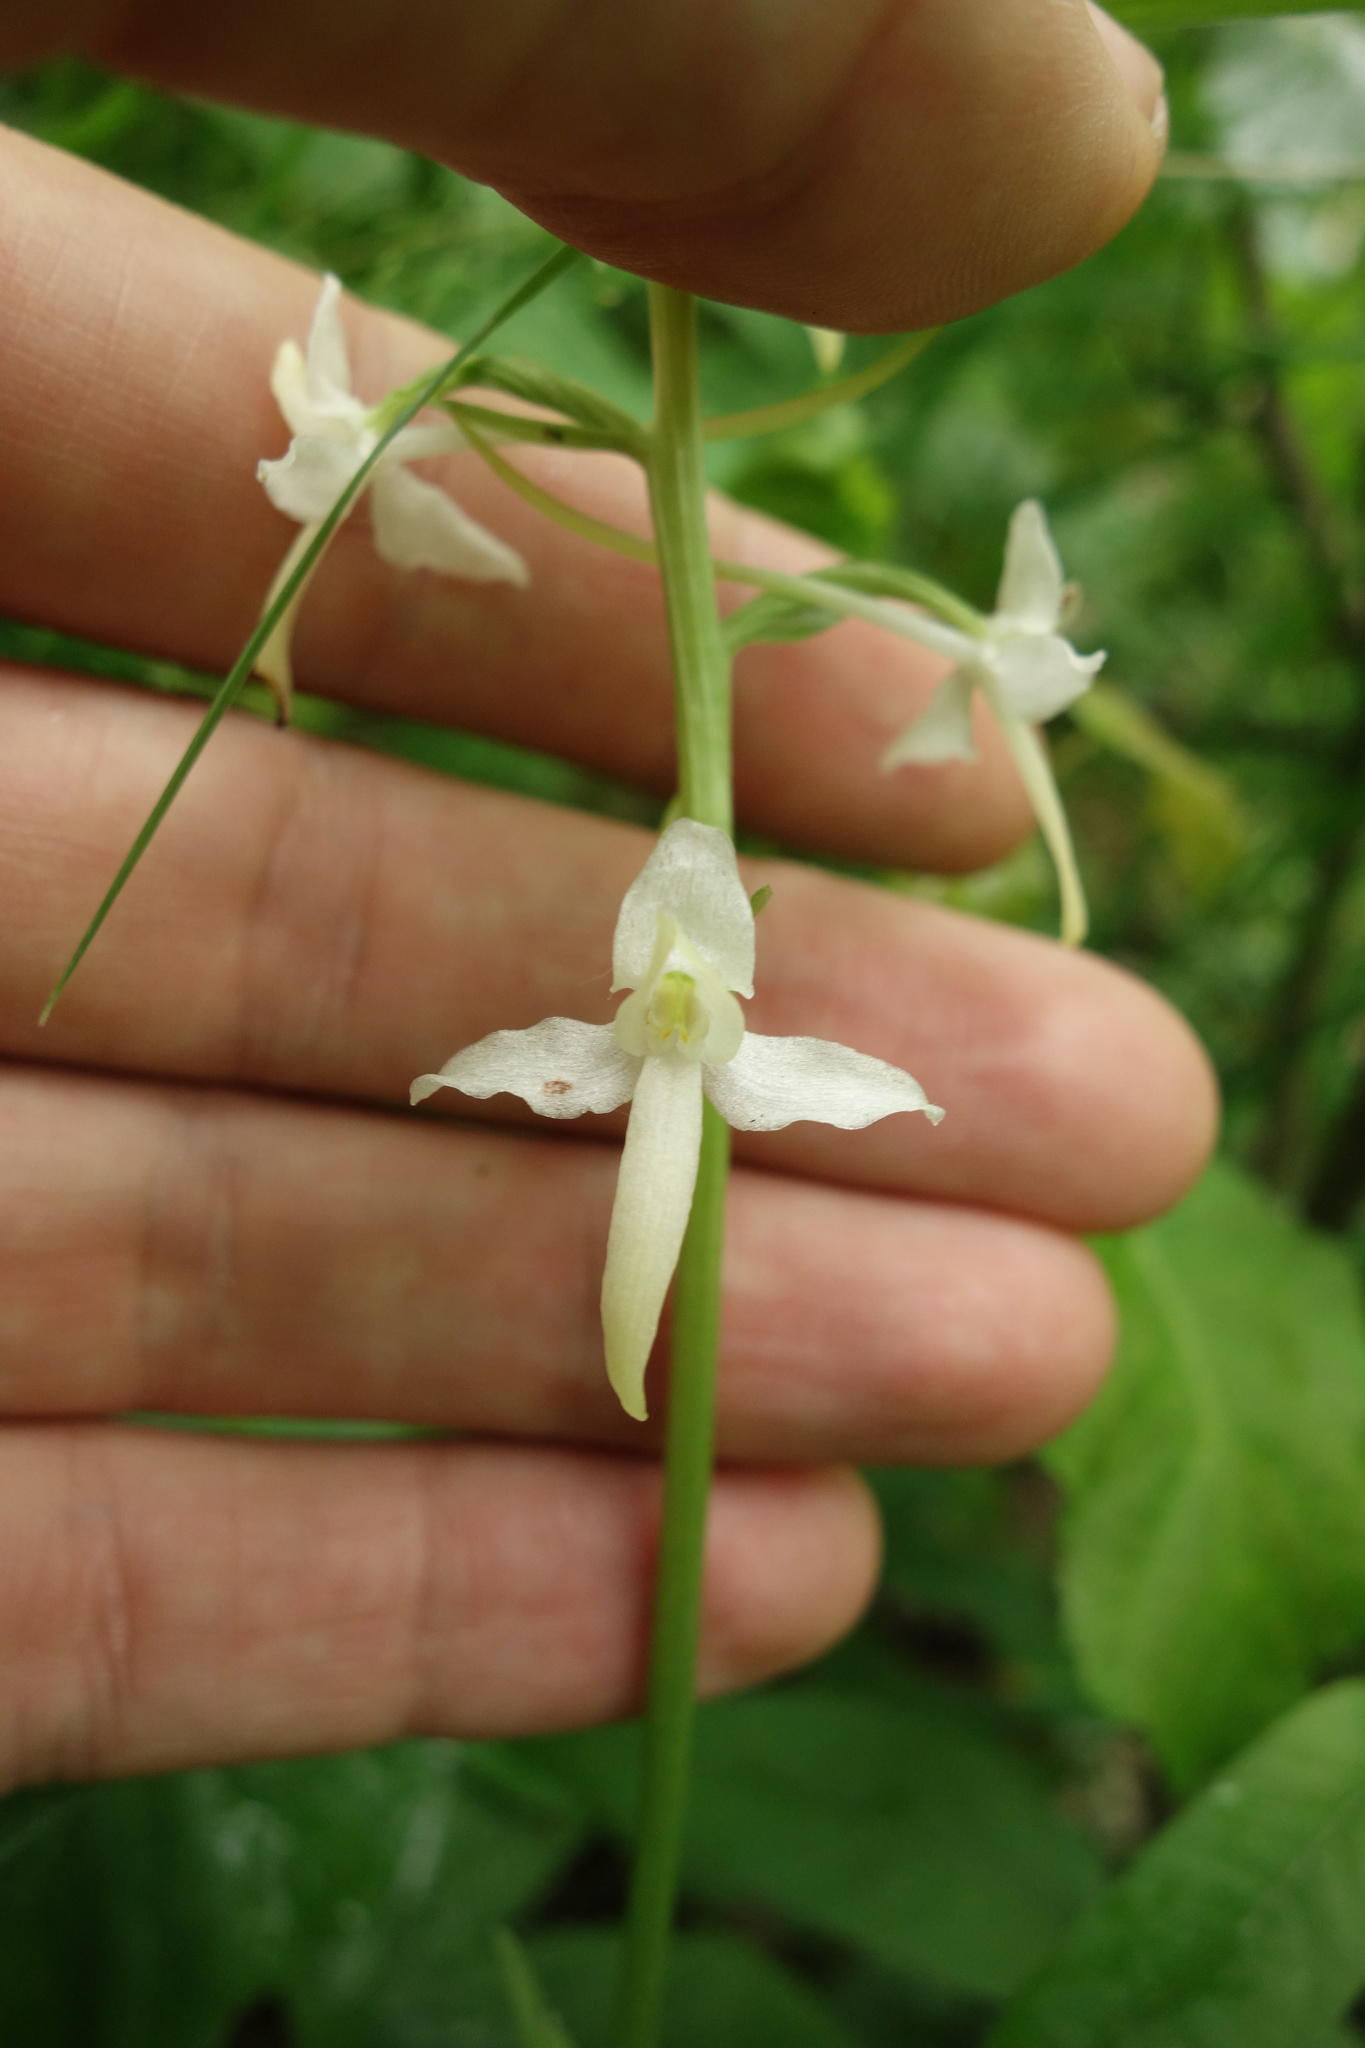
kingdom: Plantae
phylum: Tracheophyta
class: Liliopsida
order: Asparagales
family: Orchidaceae
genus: Platanthera
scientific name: Platanthera bifolia
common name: Lesser butterfly-orchid
